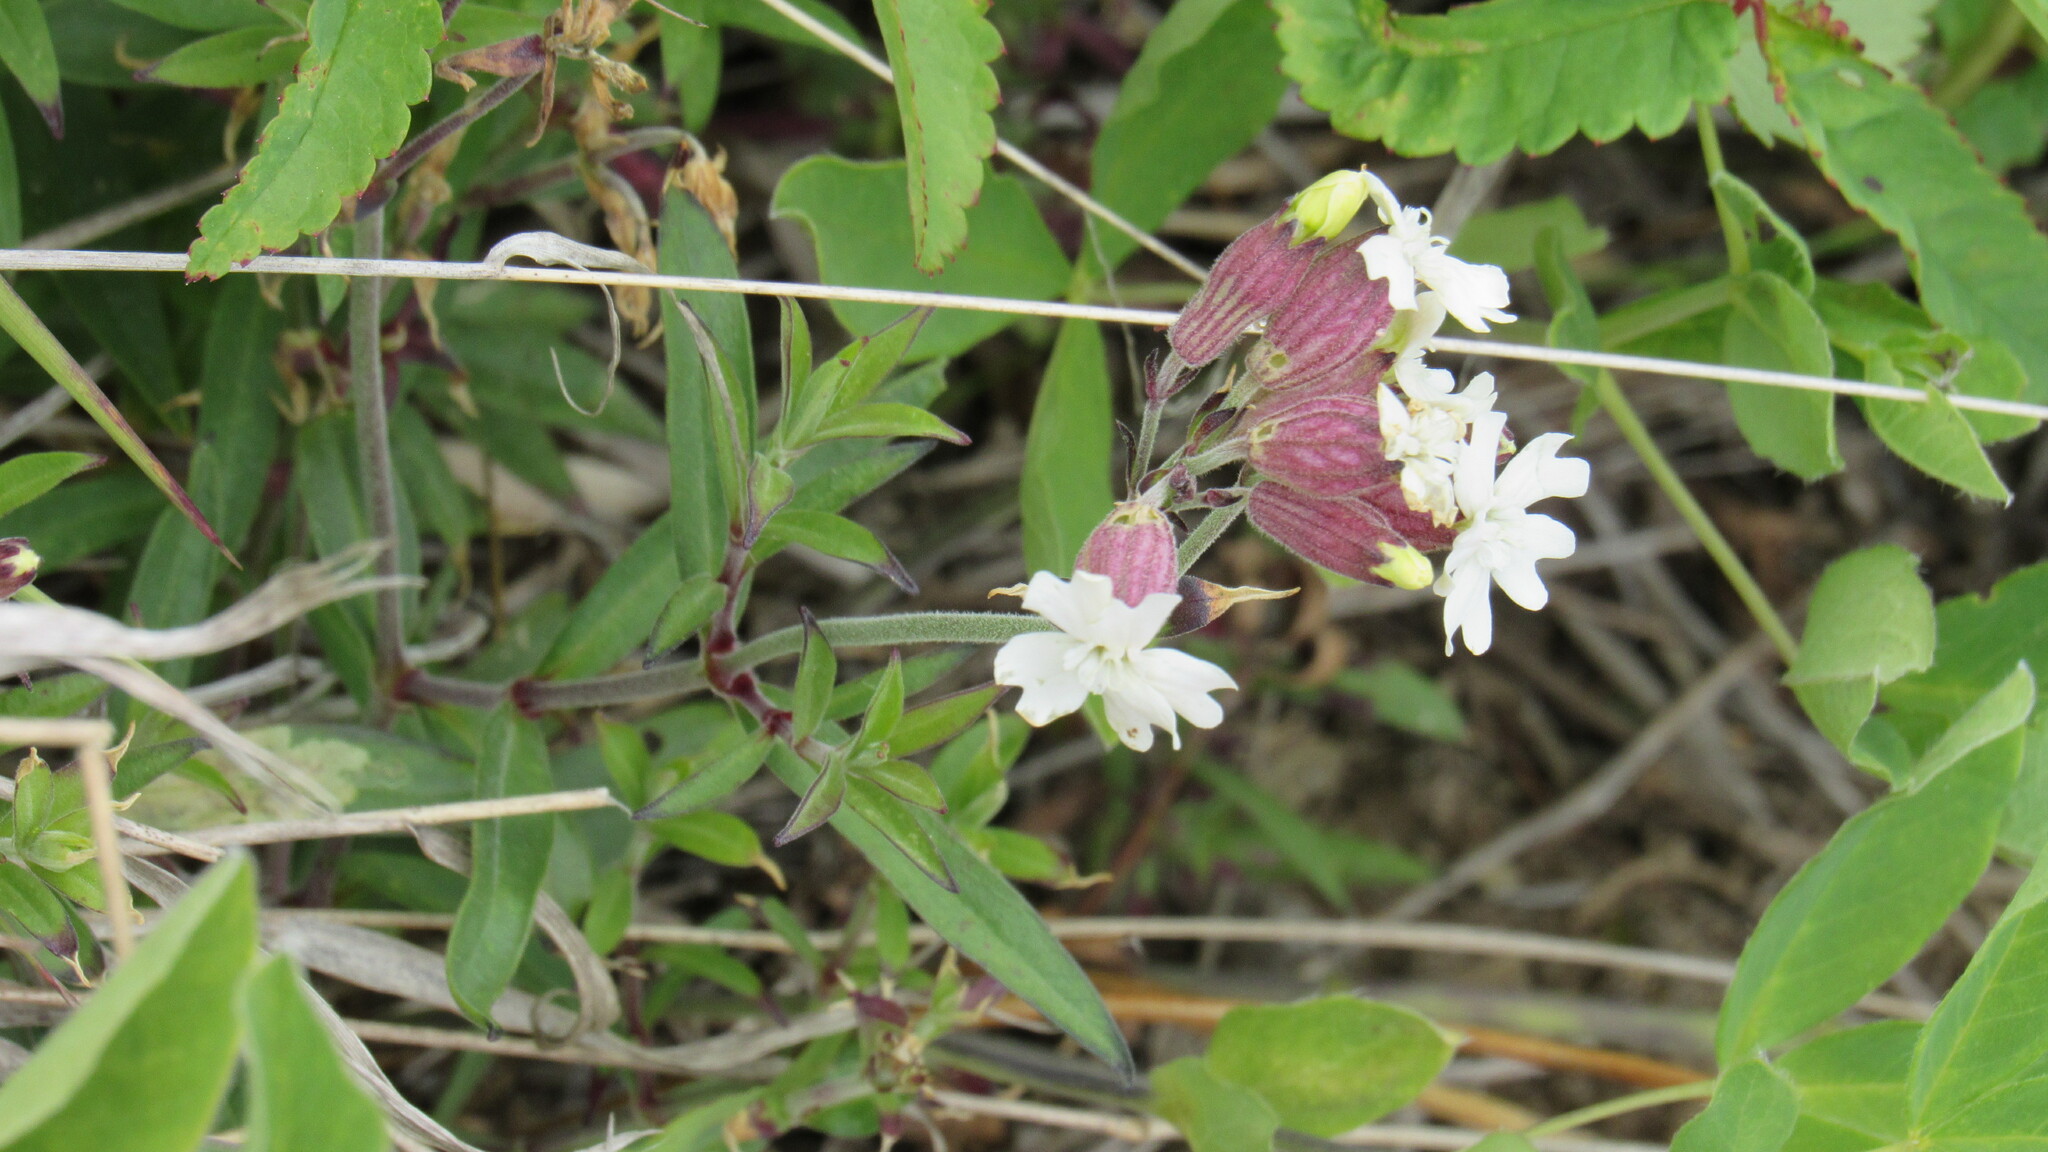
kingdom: Plantae
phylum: Tracheophyta
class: Magnoliopsida
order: Caryophyllales
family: Caryophyllaceae
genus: Silene
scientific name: Silene amoena
